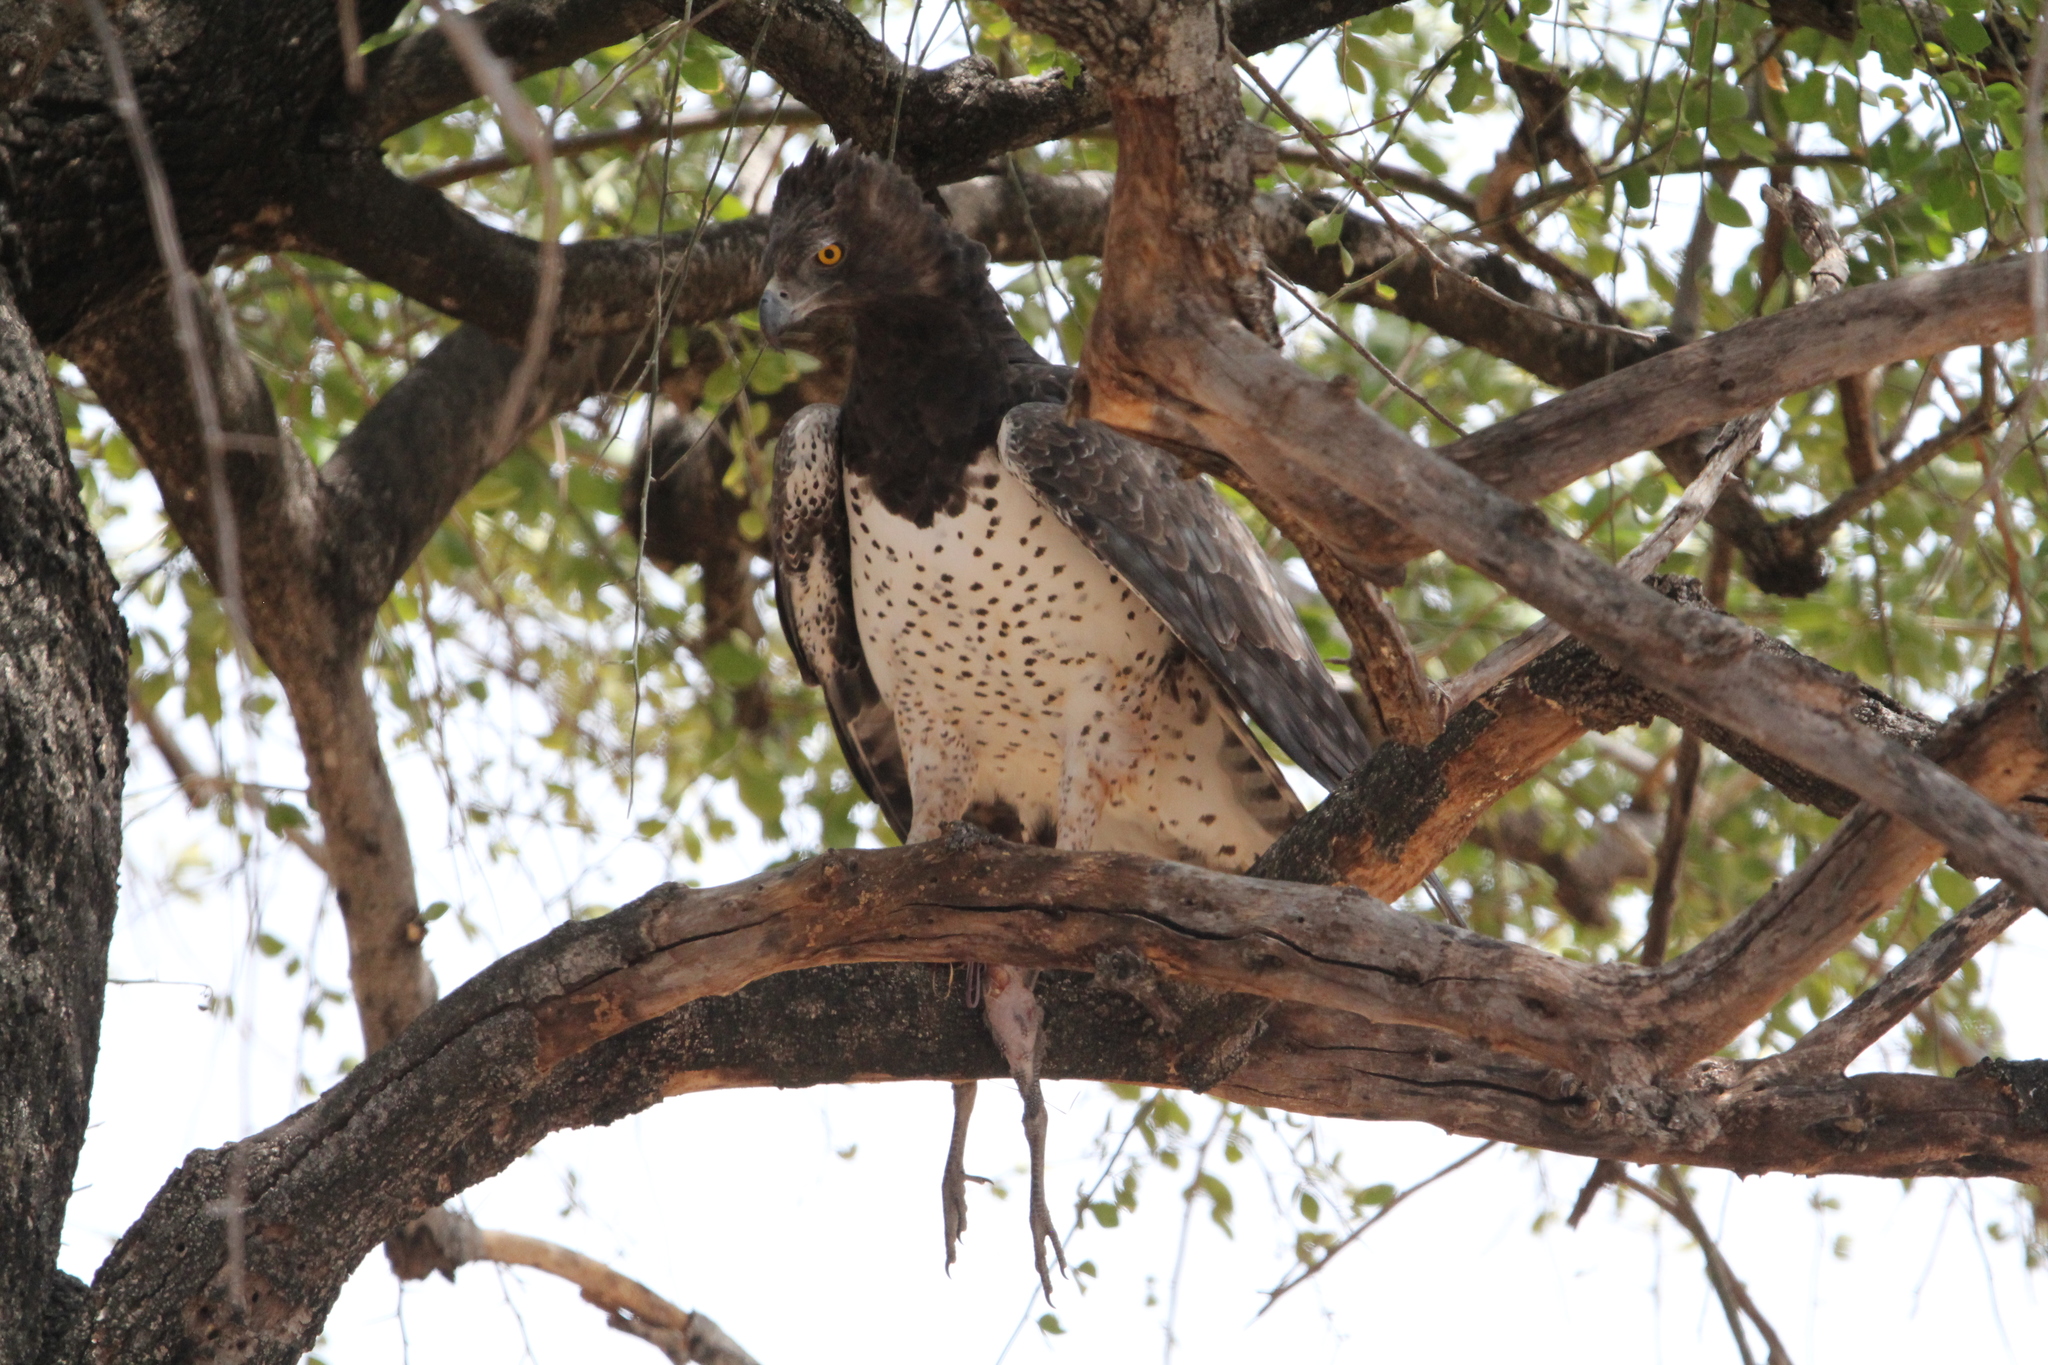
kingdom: Animalia
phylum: Chordata
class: Aves
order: Accipitriformes
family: Accipitridae
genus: Polemaetus
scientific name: Polemaetus bellicosus
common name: Martial eagle
